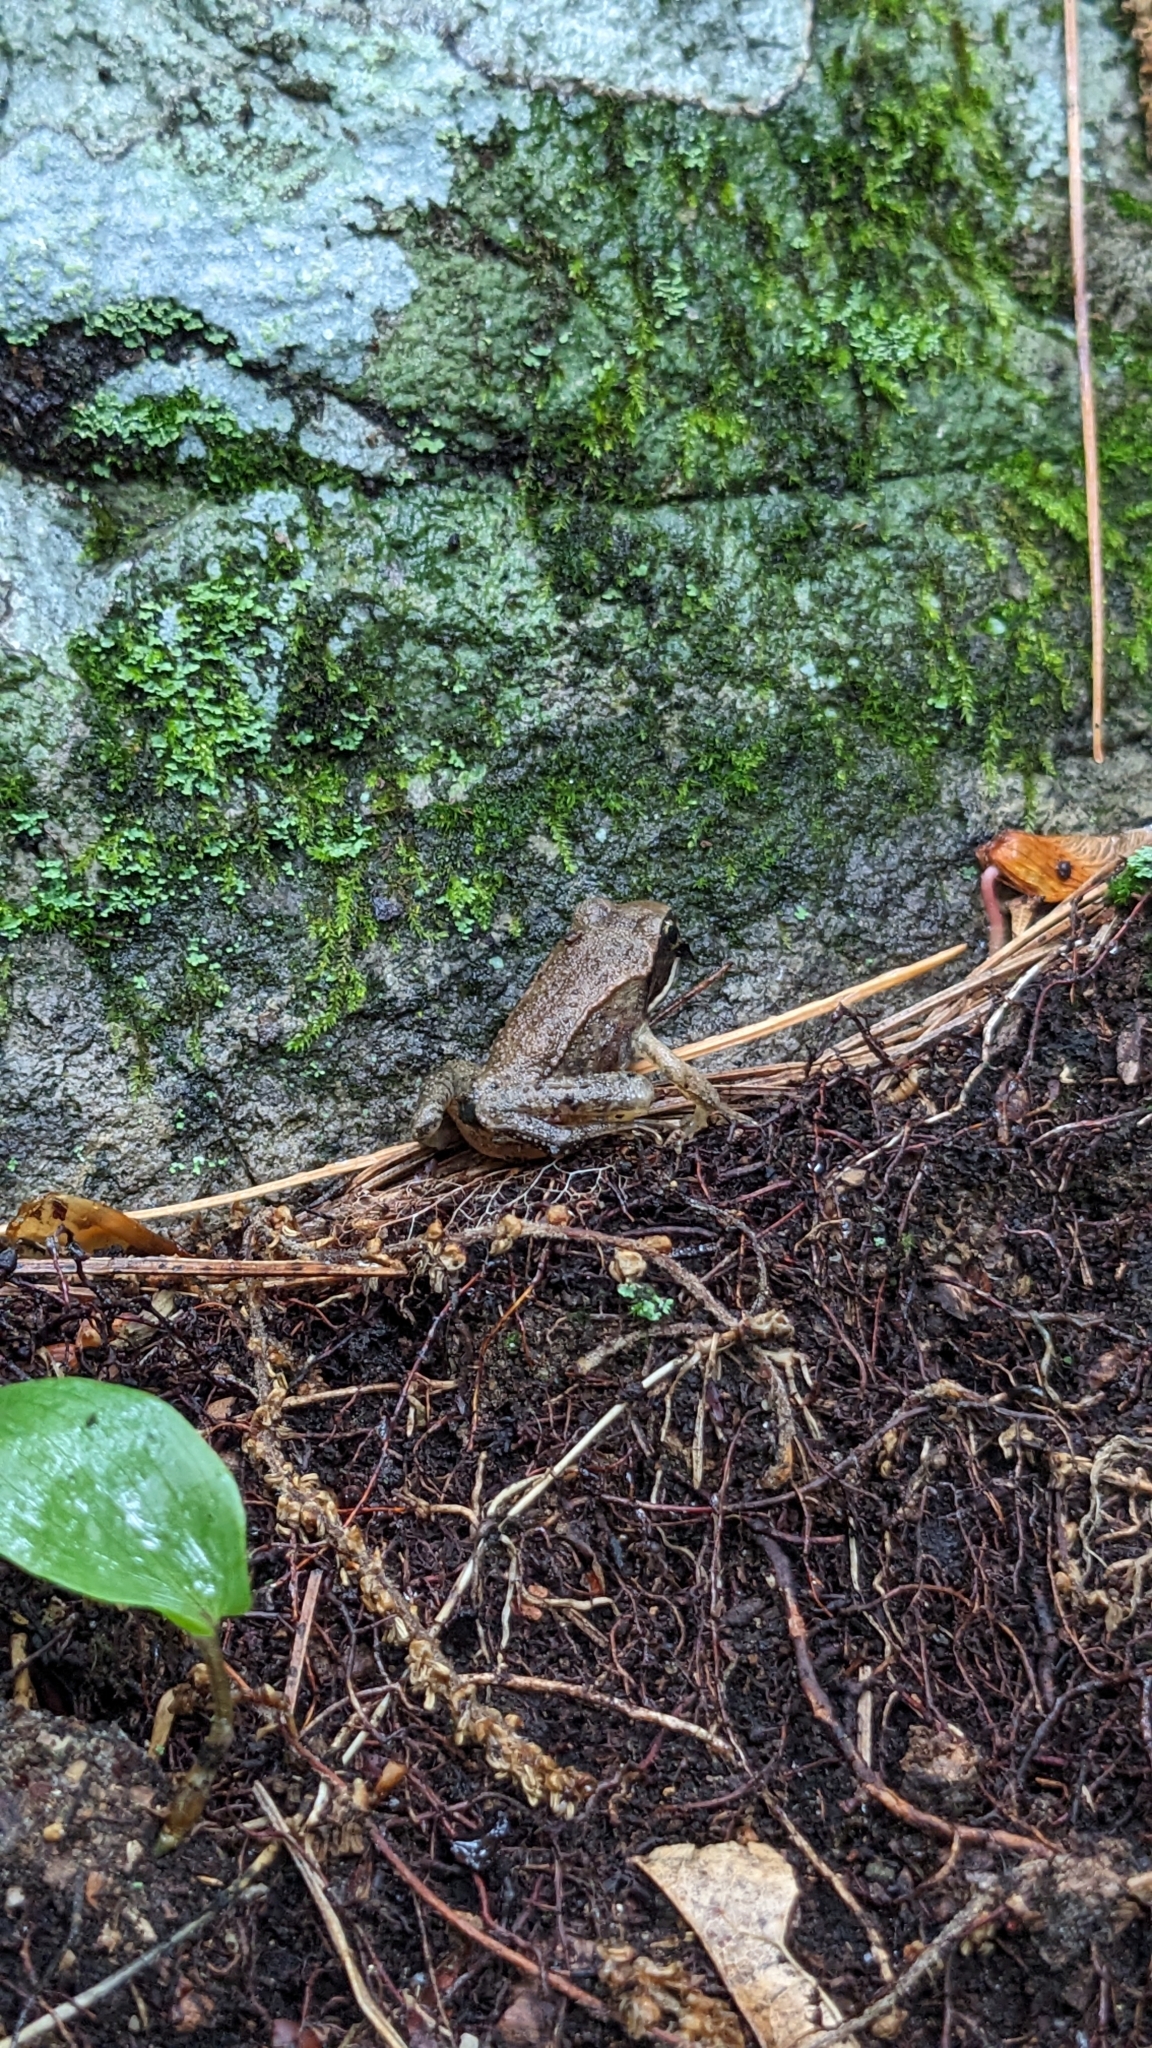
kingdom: Animalia
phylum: Chordata
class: Amphibia
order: Anura
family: Ranidae
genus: Lithobates
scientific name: Lithobates sylvaticus
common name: Wood frog
